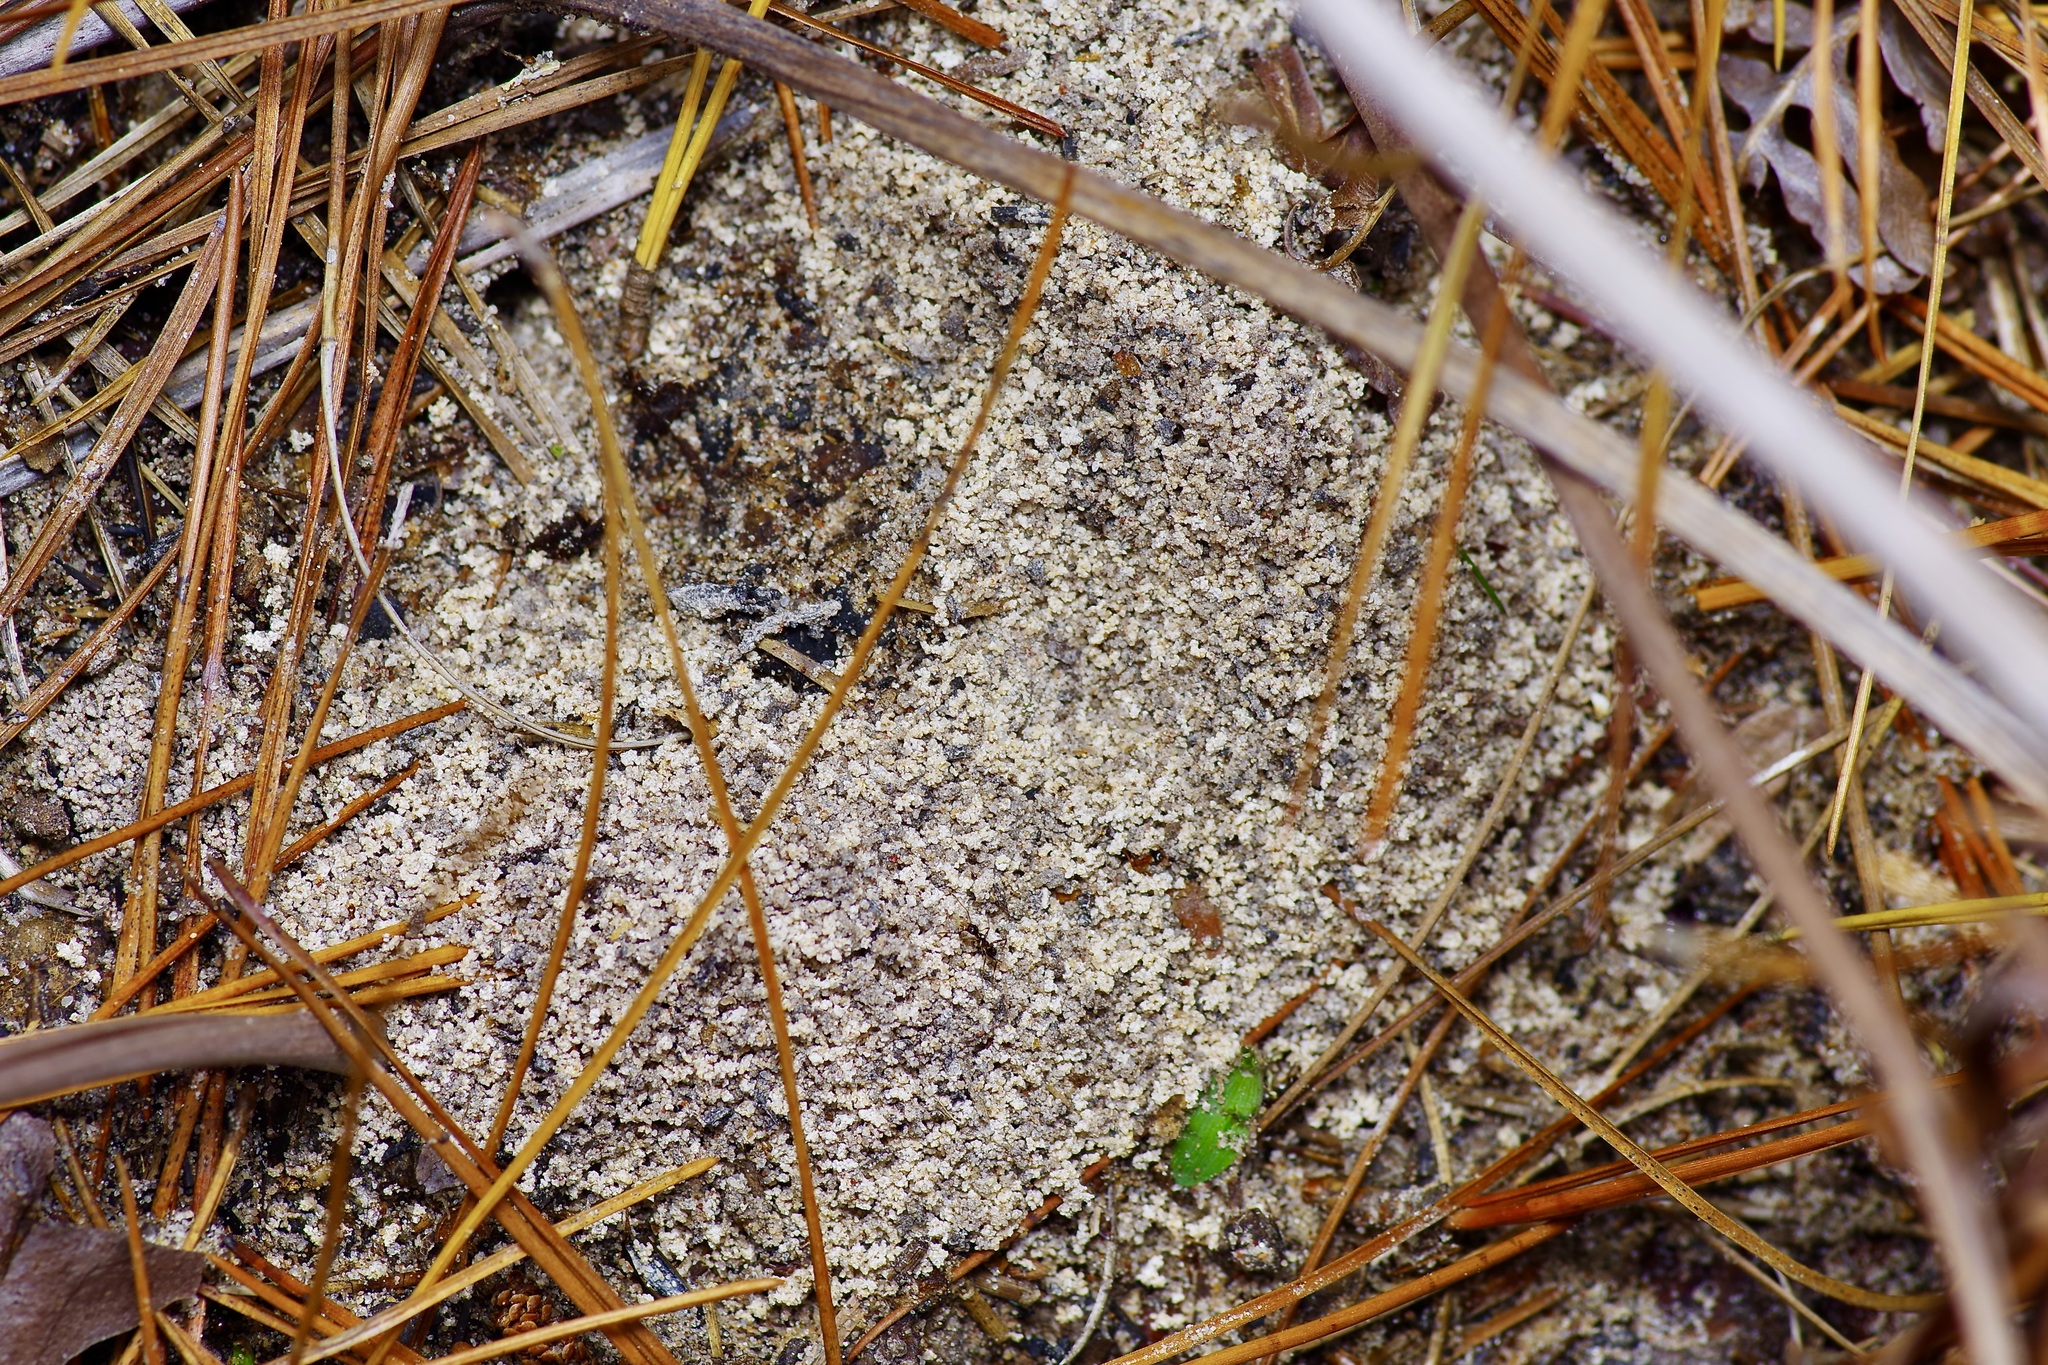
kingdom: Animalia
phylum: Arthropoda
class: Insecta
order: Hymenoptera
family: Formicidae
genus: Pheidole
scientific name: Pheidole obscurithorax
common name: Obscure big-headed ant
